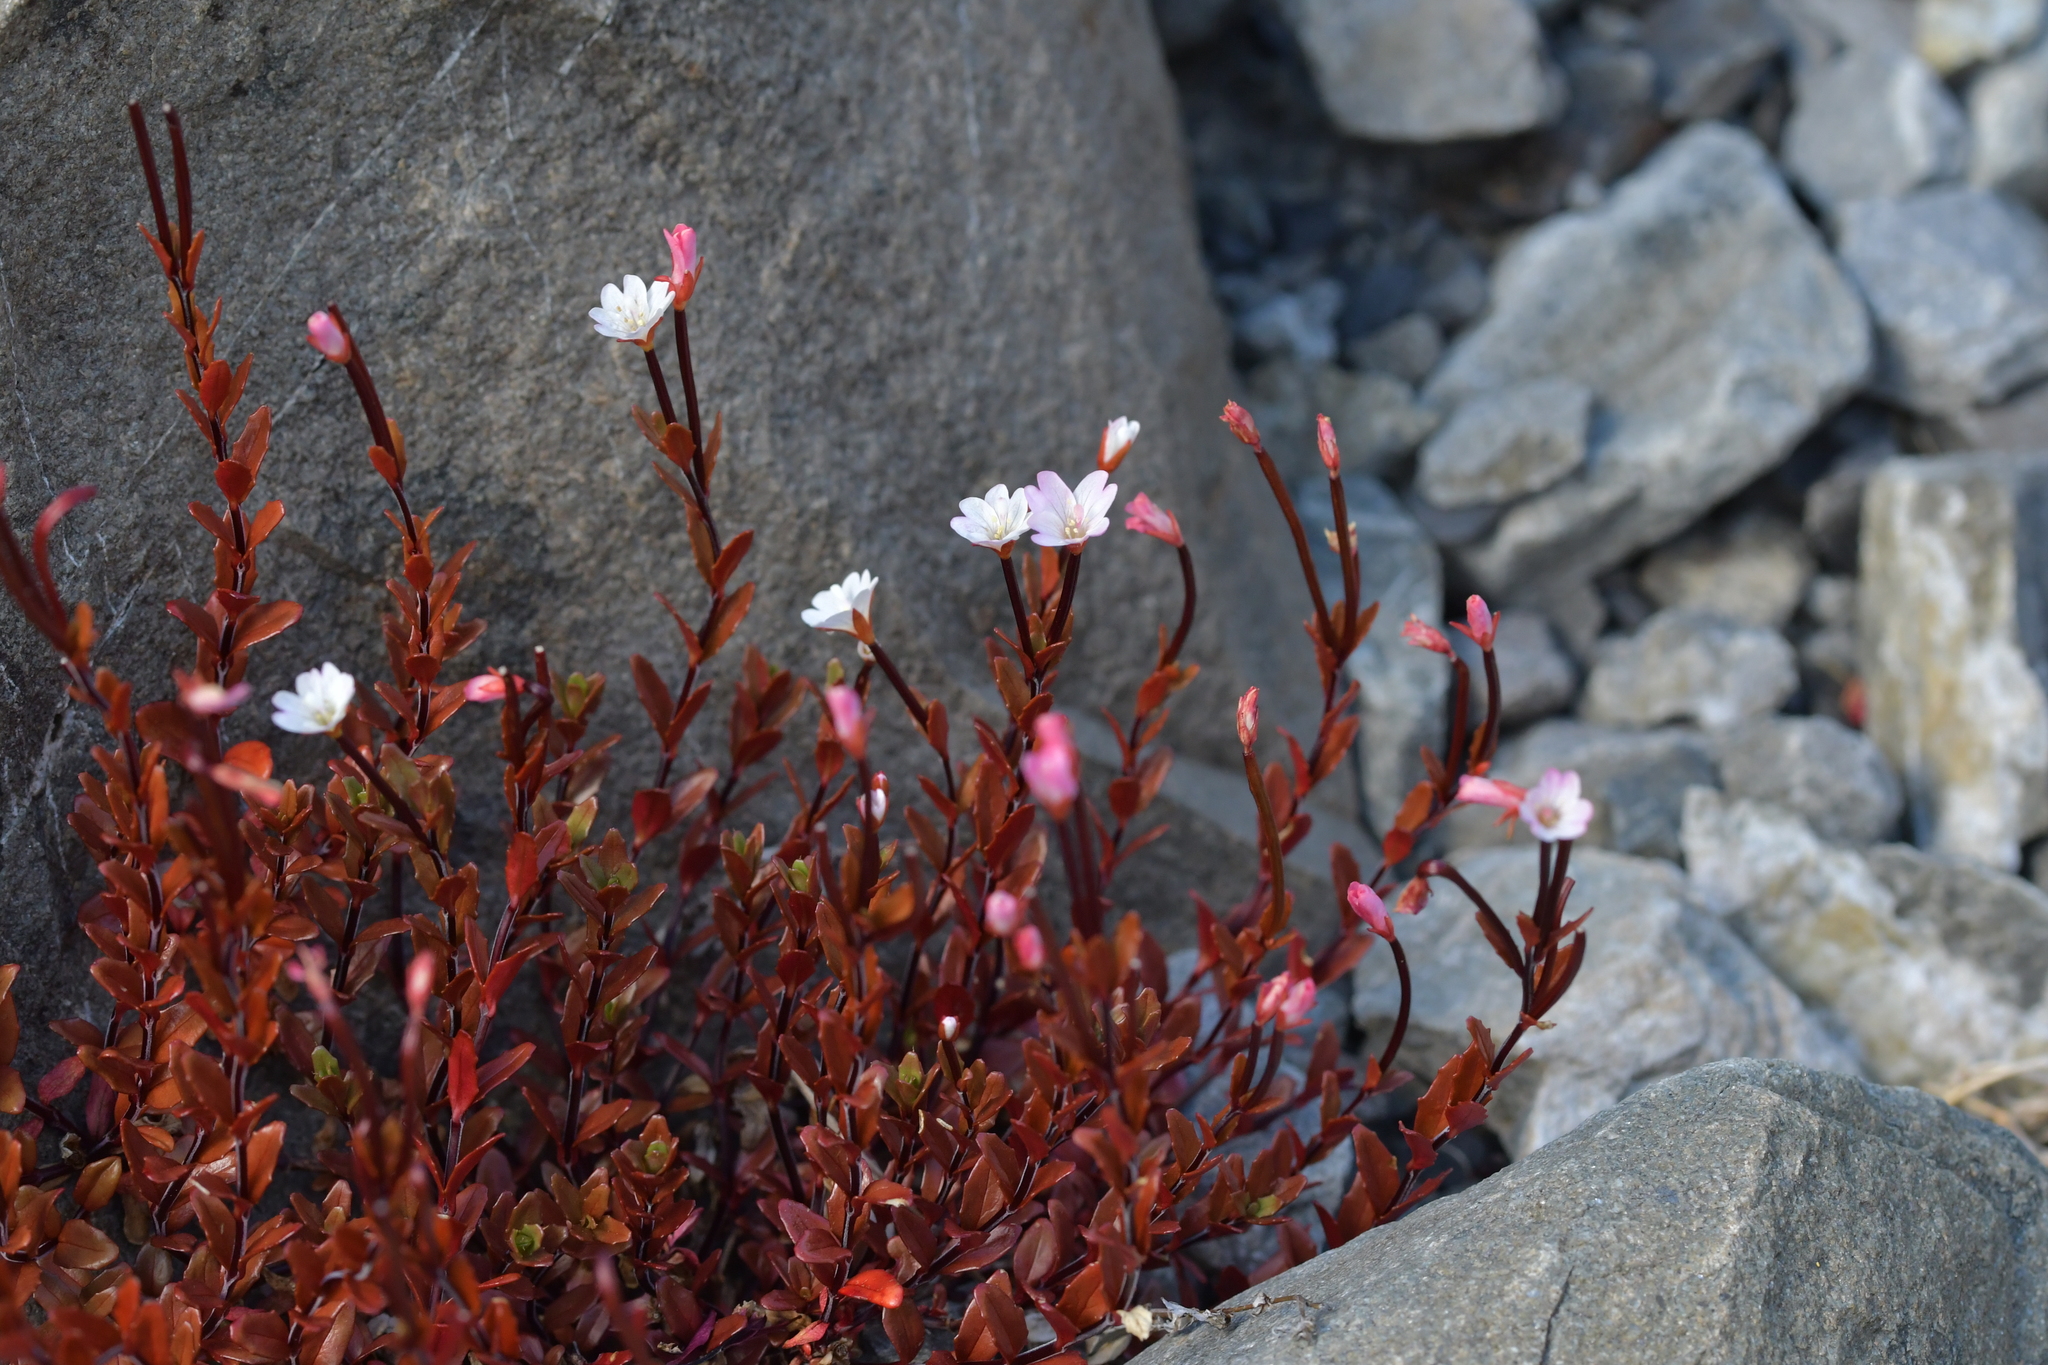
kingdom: Plantae
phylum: Tracheophyta
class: Magnoliopsida
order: Myrtales
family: Onagraceae
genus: Epilobium
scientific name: Epilobium glabellum
